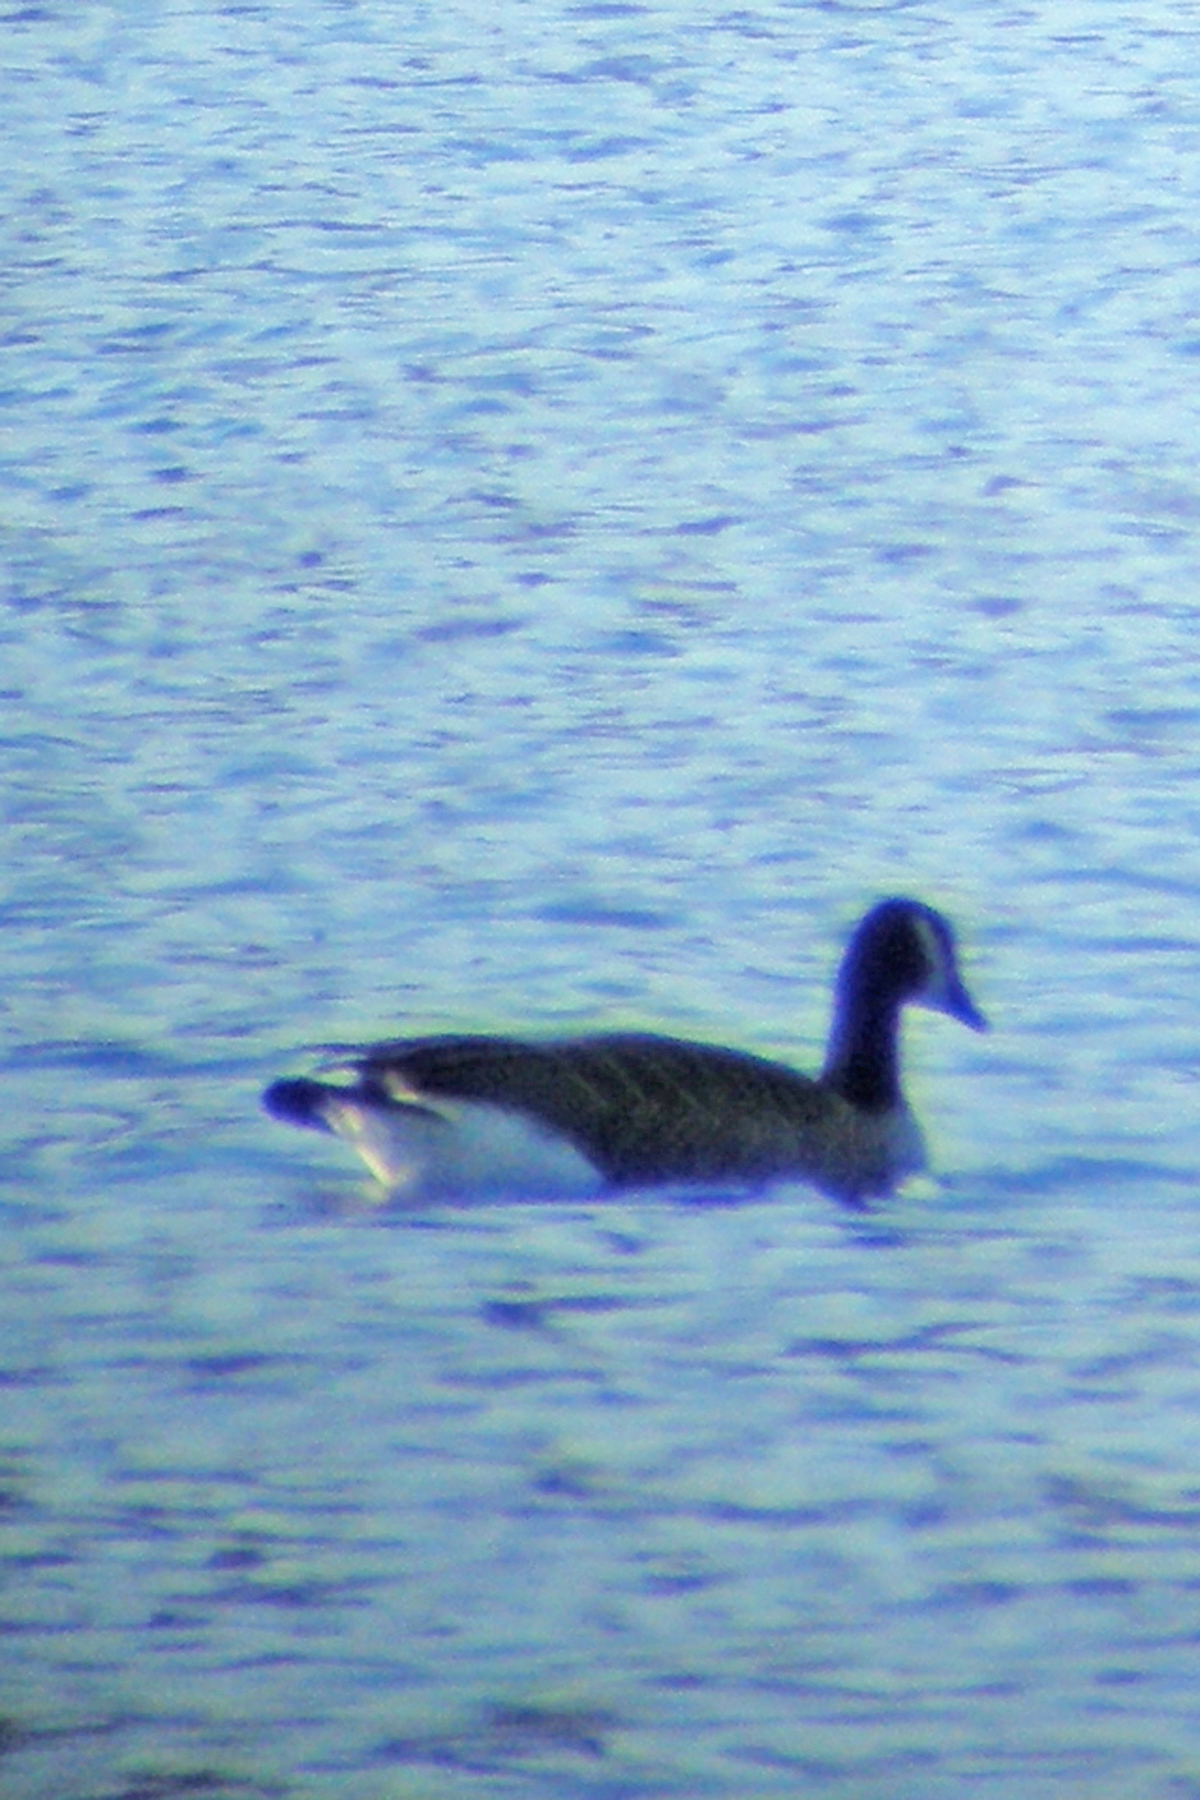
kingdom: Animalia
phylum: Chordata
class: Aves
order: Anseriformes
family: Anatidae
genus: Branta
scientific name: Branta canadensis
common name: Canada goose
